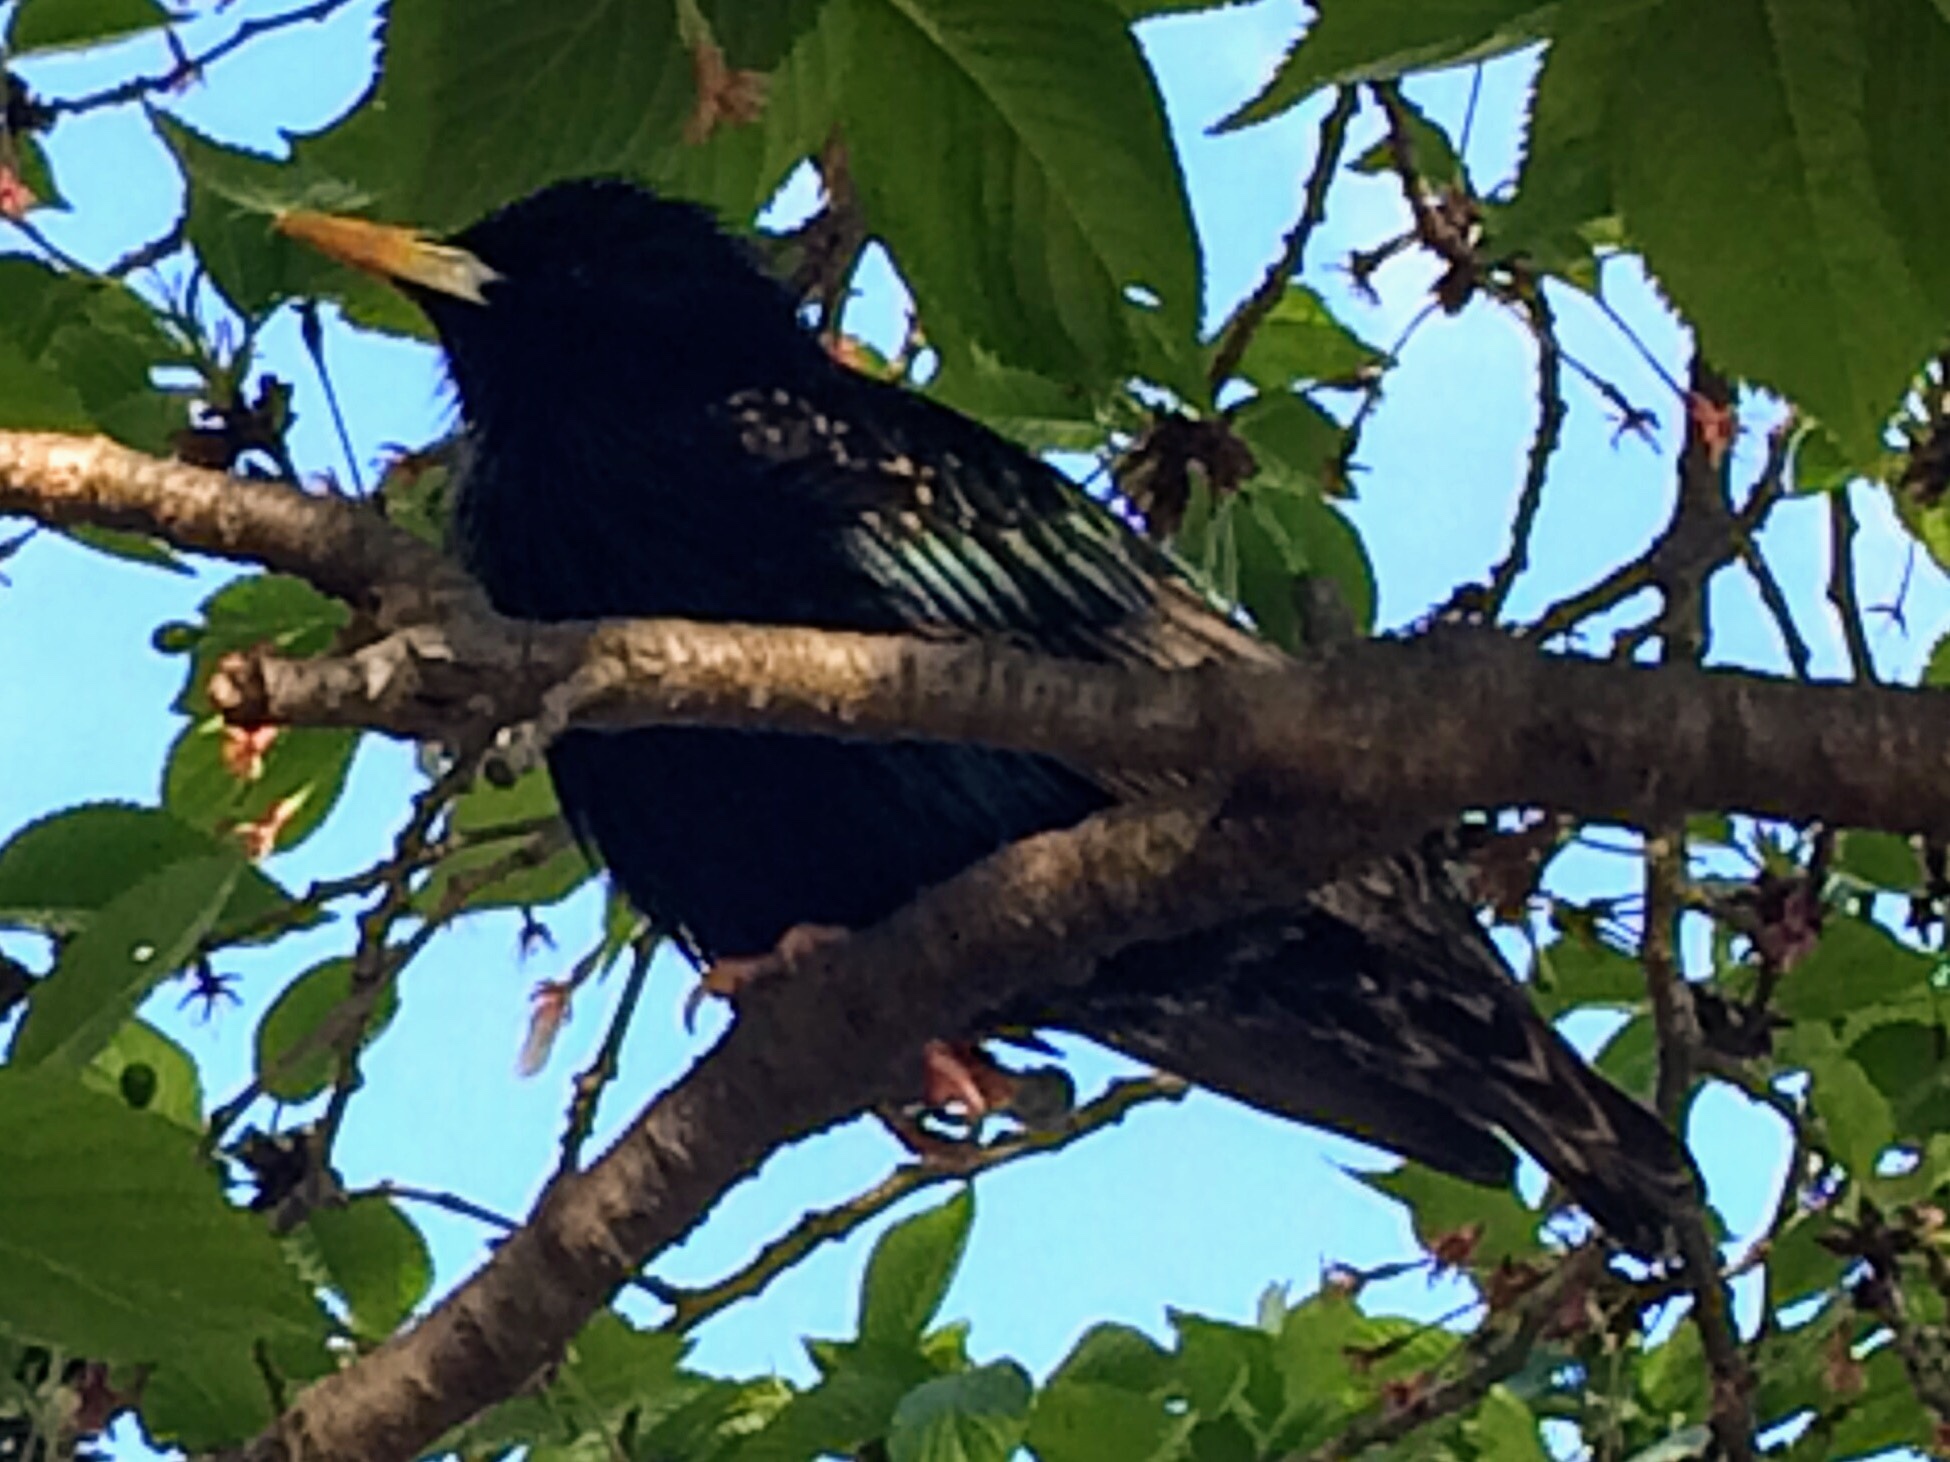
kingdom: Animalia
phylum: Chordata
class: Aves
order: Passeriformes
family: Sturnidae
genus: Sturnus
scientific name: Sturnus vulgaris
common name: Common starling
